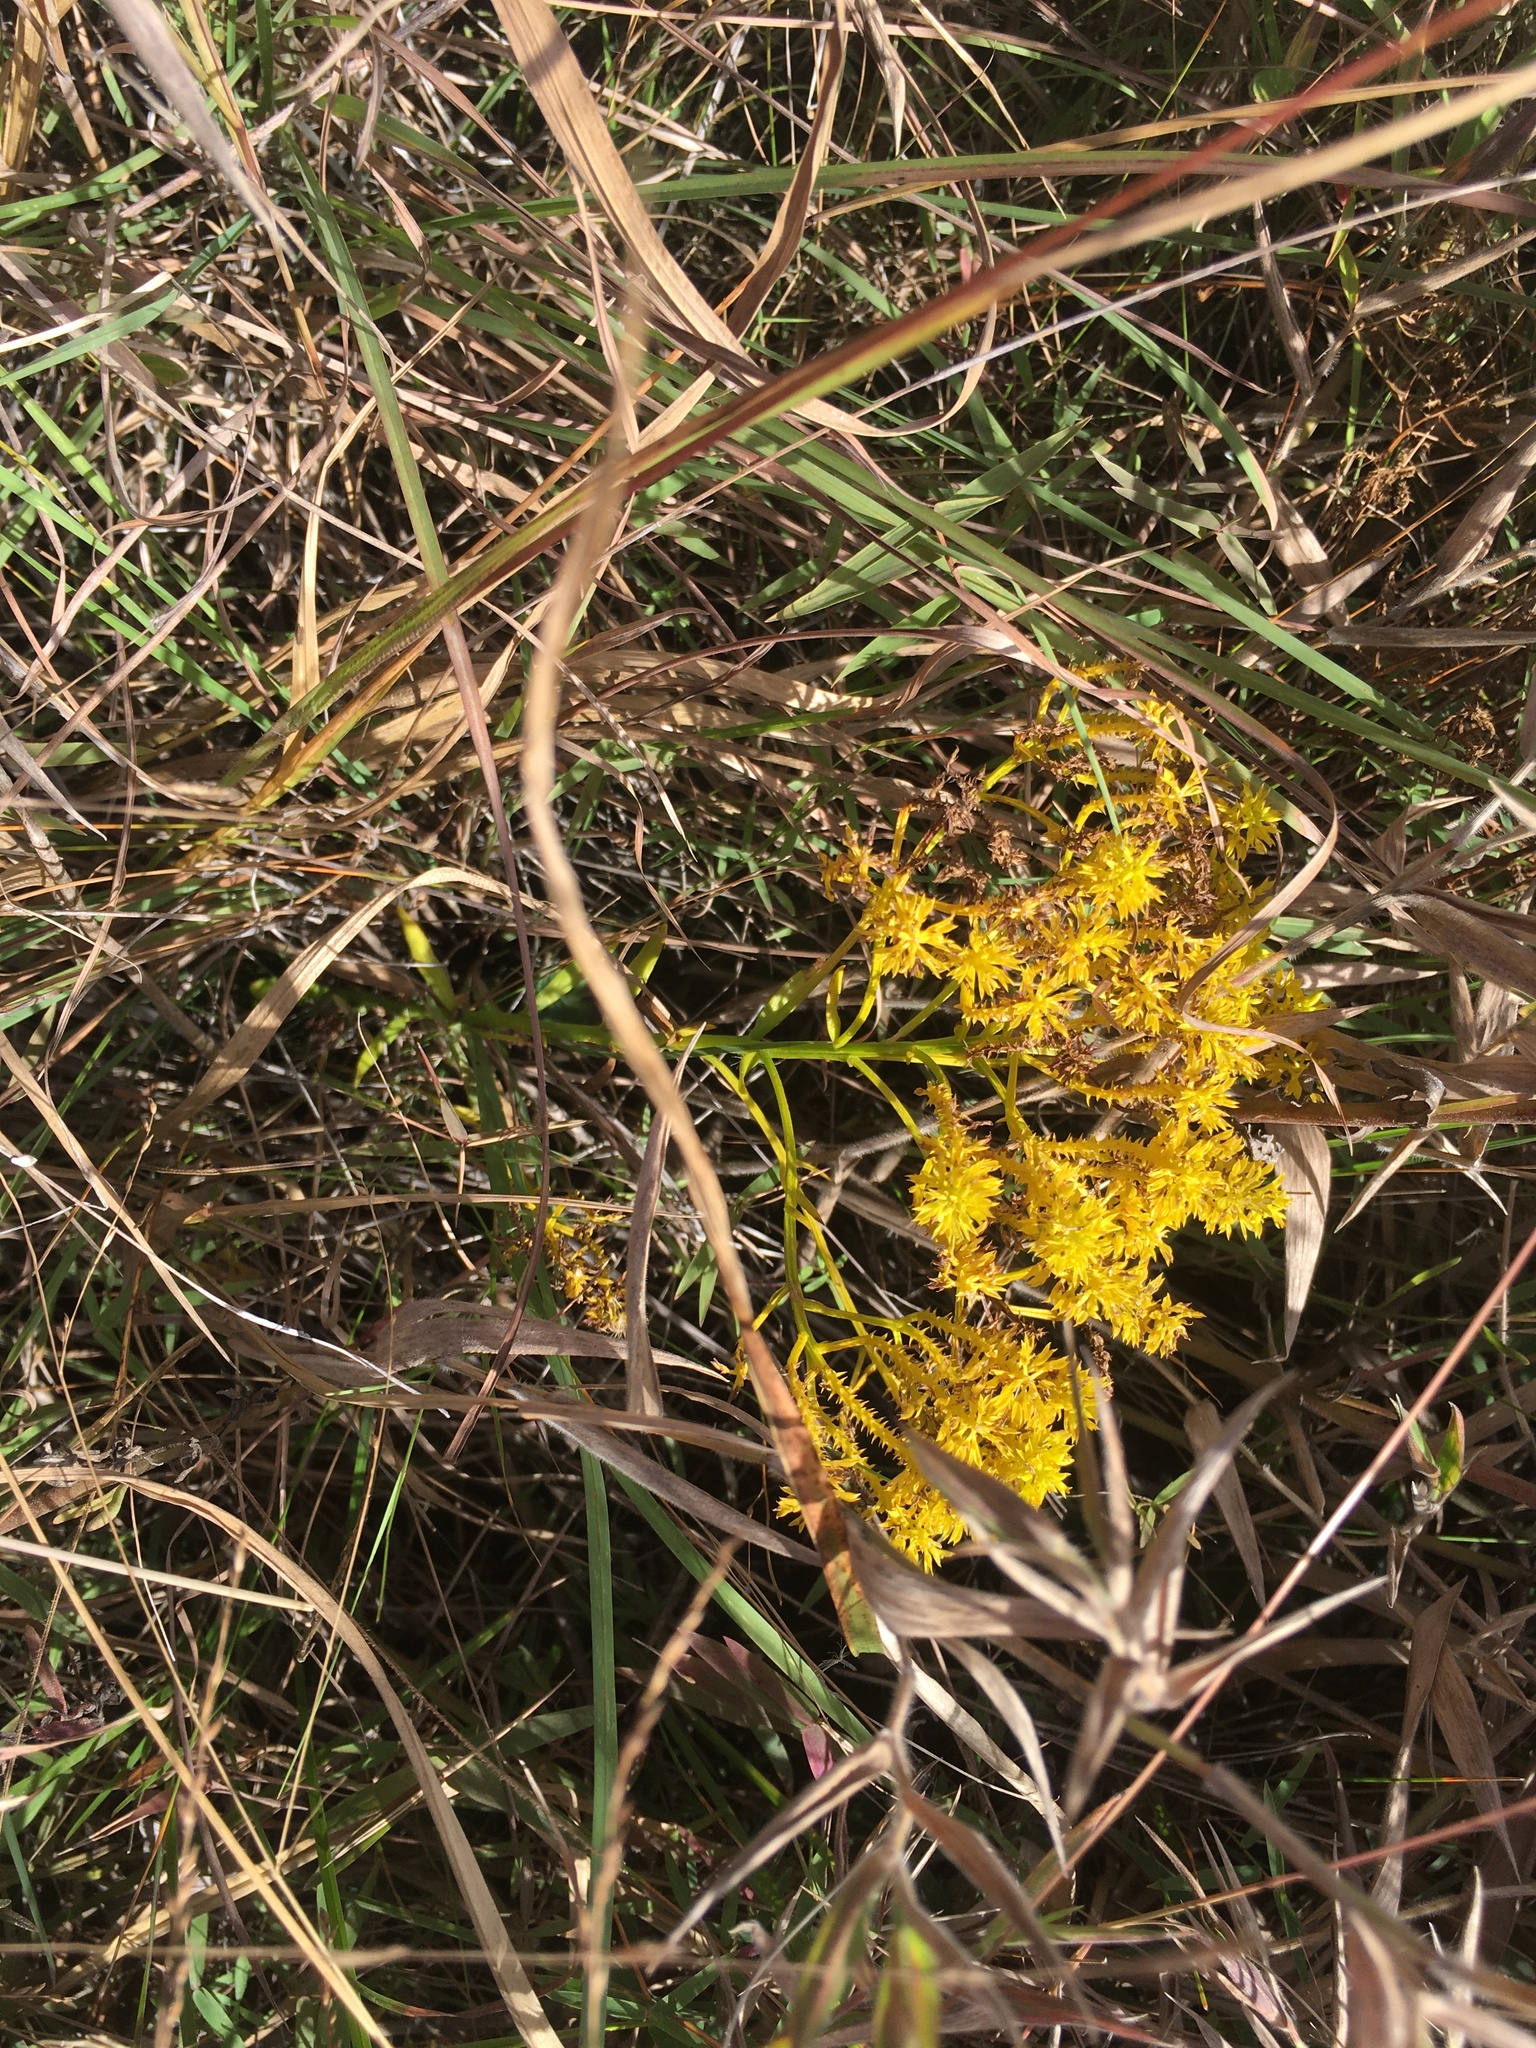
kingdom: Plantae
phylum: Tracheophyta
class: Magnoliopsida
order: Fabales
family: Polygalaceae
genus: Polygala
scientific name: Polygala ramosa
